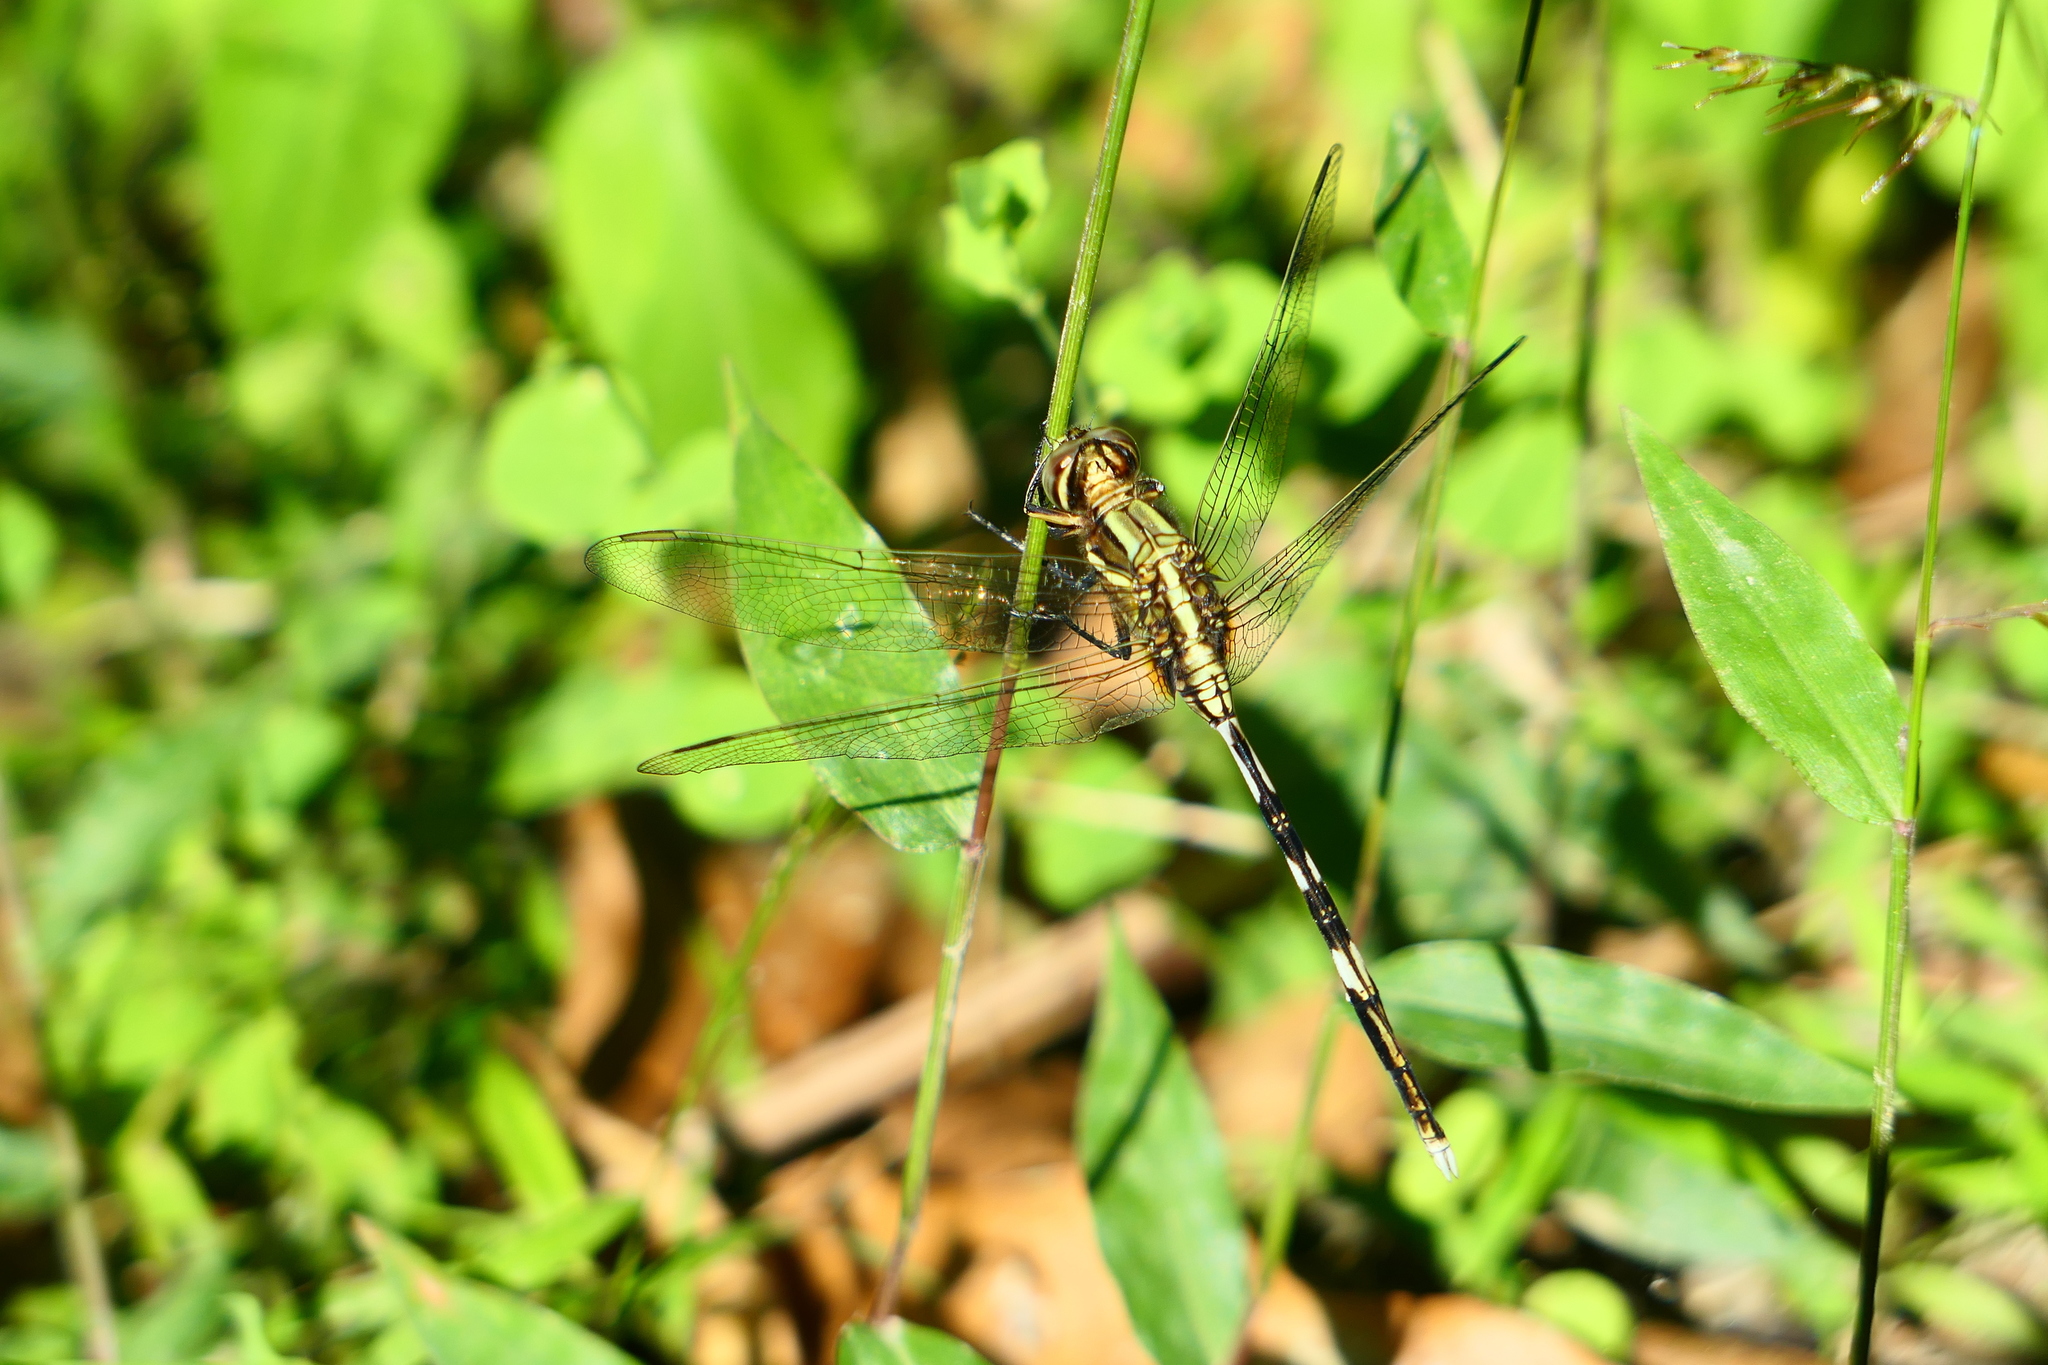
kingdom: Animalia
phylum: Arthropoda
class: Insecta
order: Odonata
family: Libellulidae
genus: Orthetrum
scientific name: Orthetrum sabina
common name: Slender skimmer
